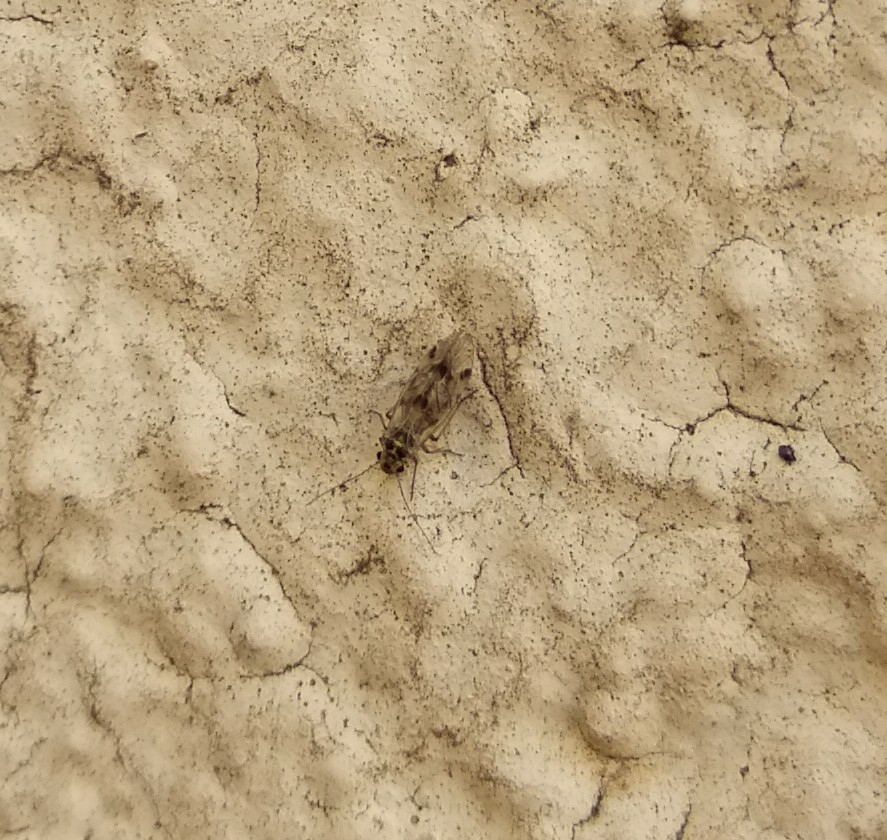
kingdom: Animalia
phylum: Arthropoda
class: Insecta
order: Psocodea
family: Psocidae
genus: Psocus
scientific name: Psocus bipunctatus
